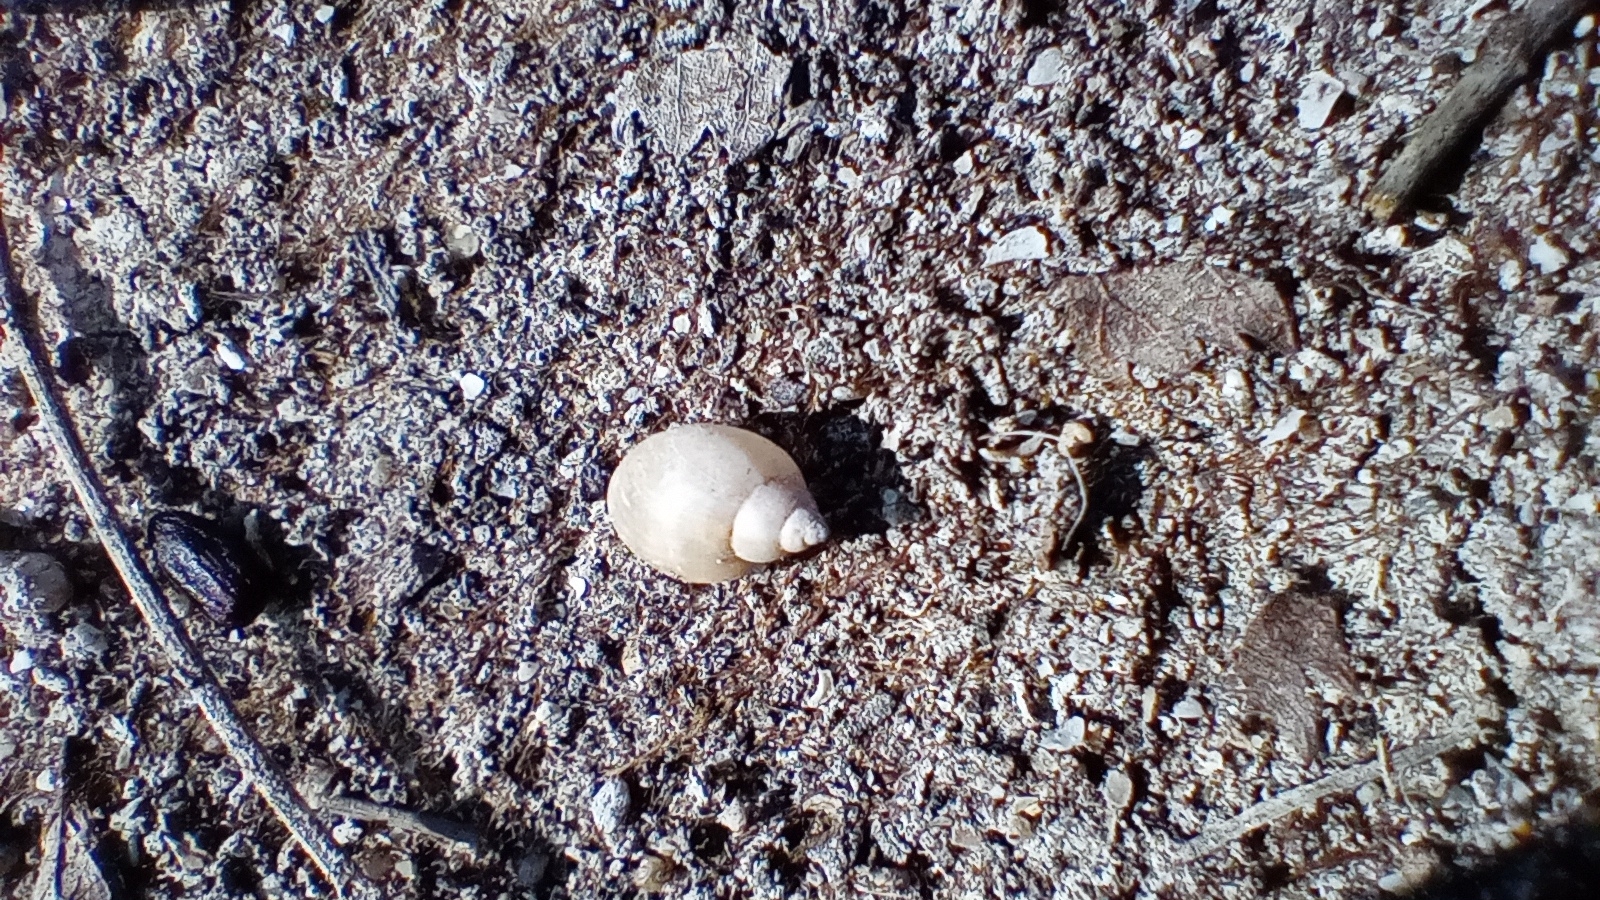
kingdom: Animalia
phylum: Mollusca
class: Gastropoda
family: Physidae
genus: Physella
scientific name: Physella acuta
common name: European physa
